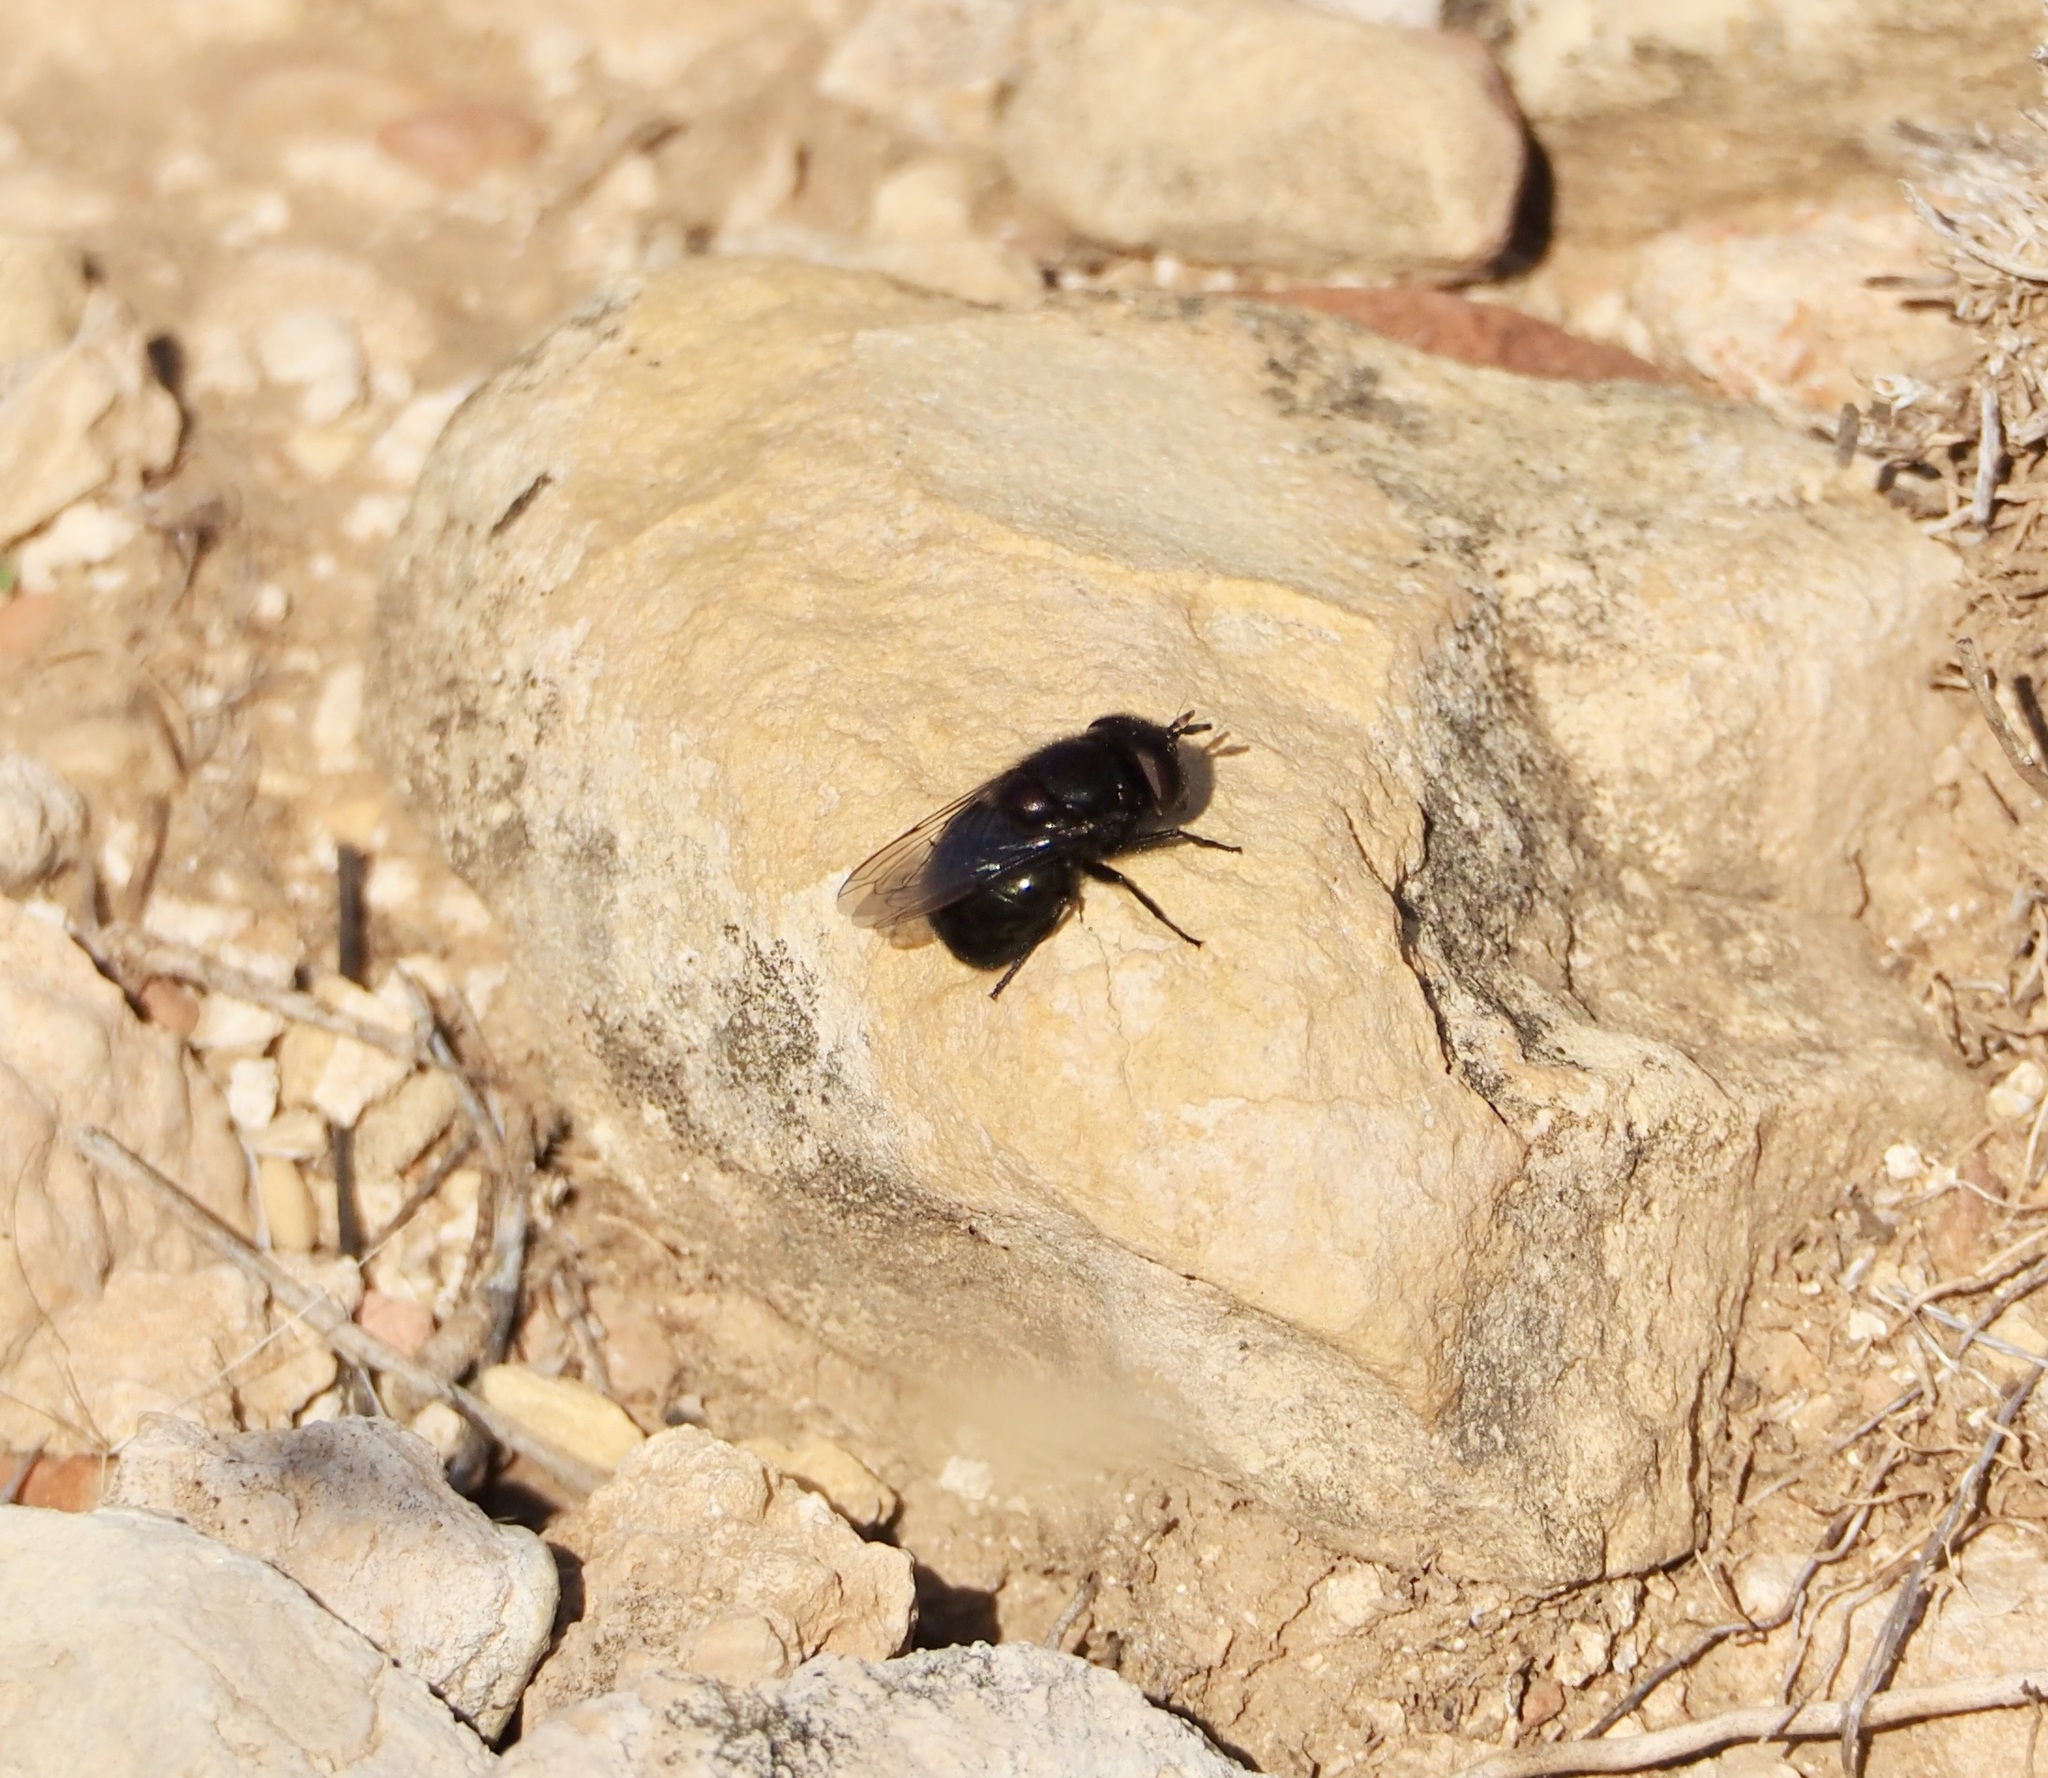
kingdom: Animalia
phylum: Arthropoda
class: Insecta
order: Diptera
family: Syrphidae
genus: Copestylum
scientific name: Copestylum comstocki
